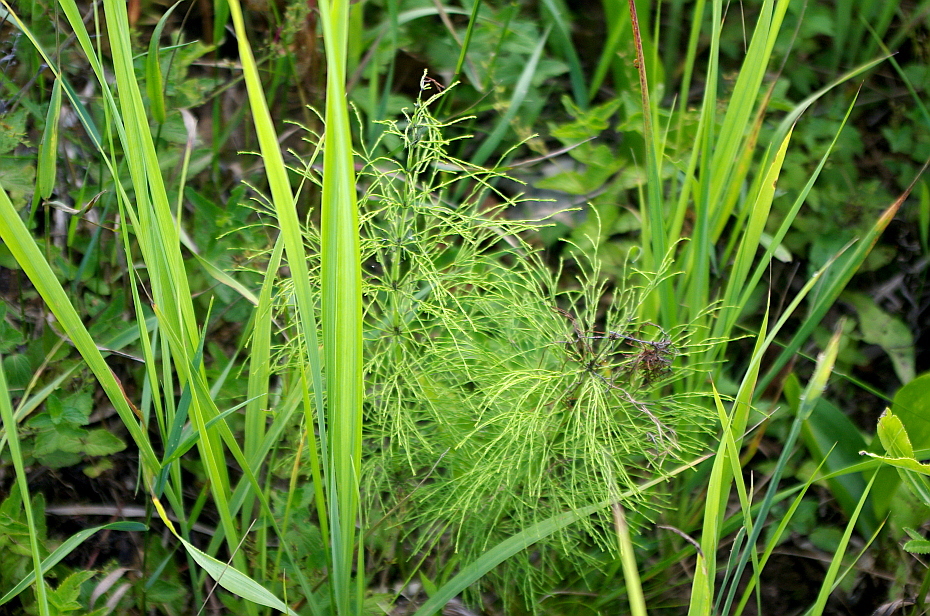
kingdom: Plantae
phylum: Tracheophyta
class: Polypodiopsida
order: Equisetales
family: Equisetaceae
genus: Equisetum
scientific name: Equisetum sylvaticum
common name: Wood horsetail
